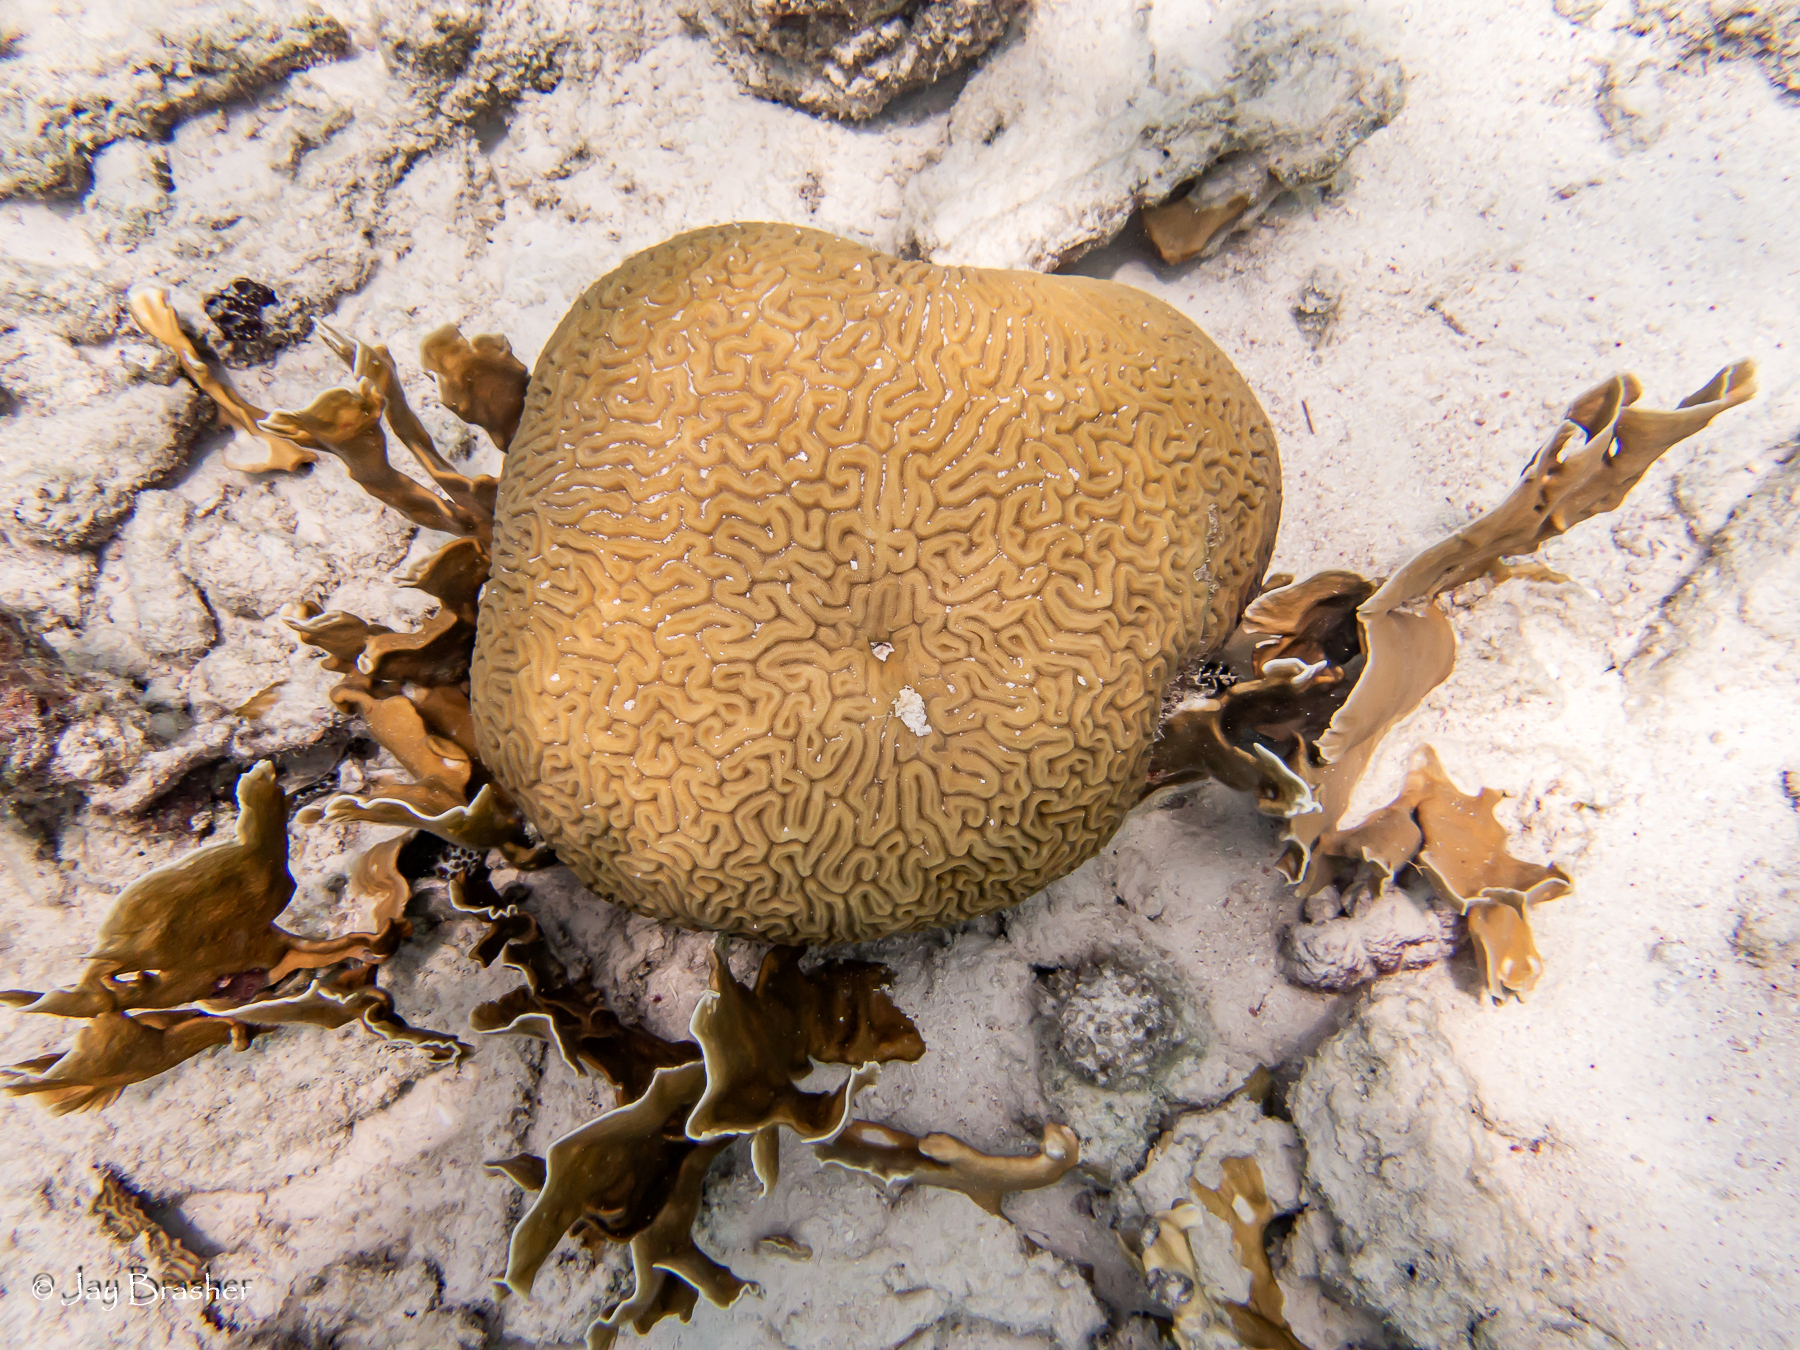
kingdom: Animalia
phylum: Cnidaria
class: Hydrozoa
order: Anthoathecata
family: Milleporidae
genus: Millepora
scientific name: Millepora complanata
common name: Bladed fire coral
